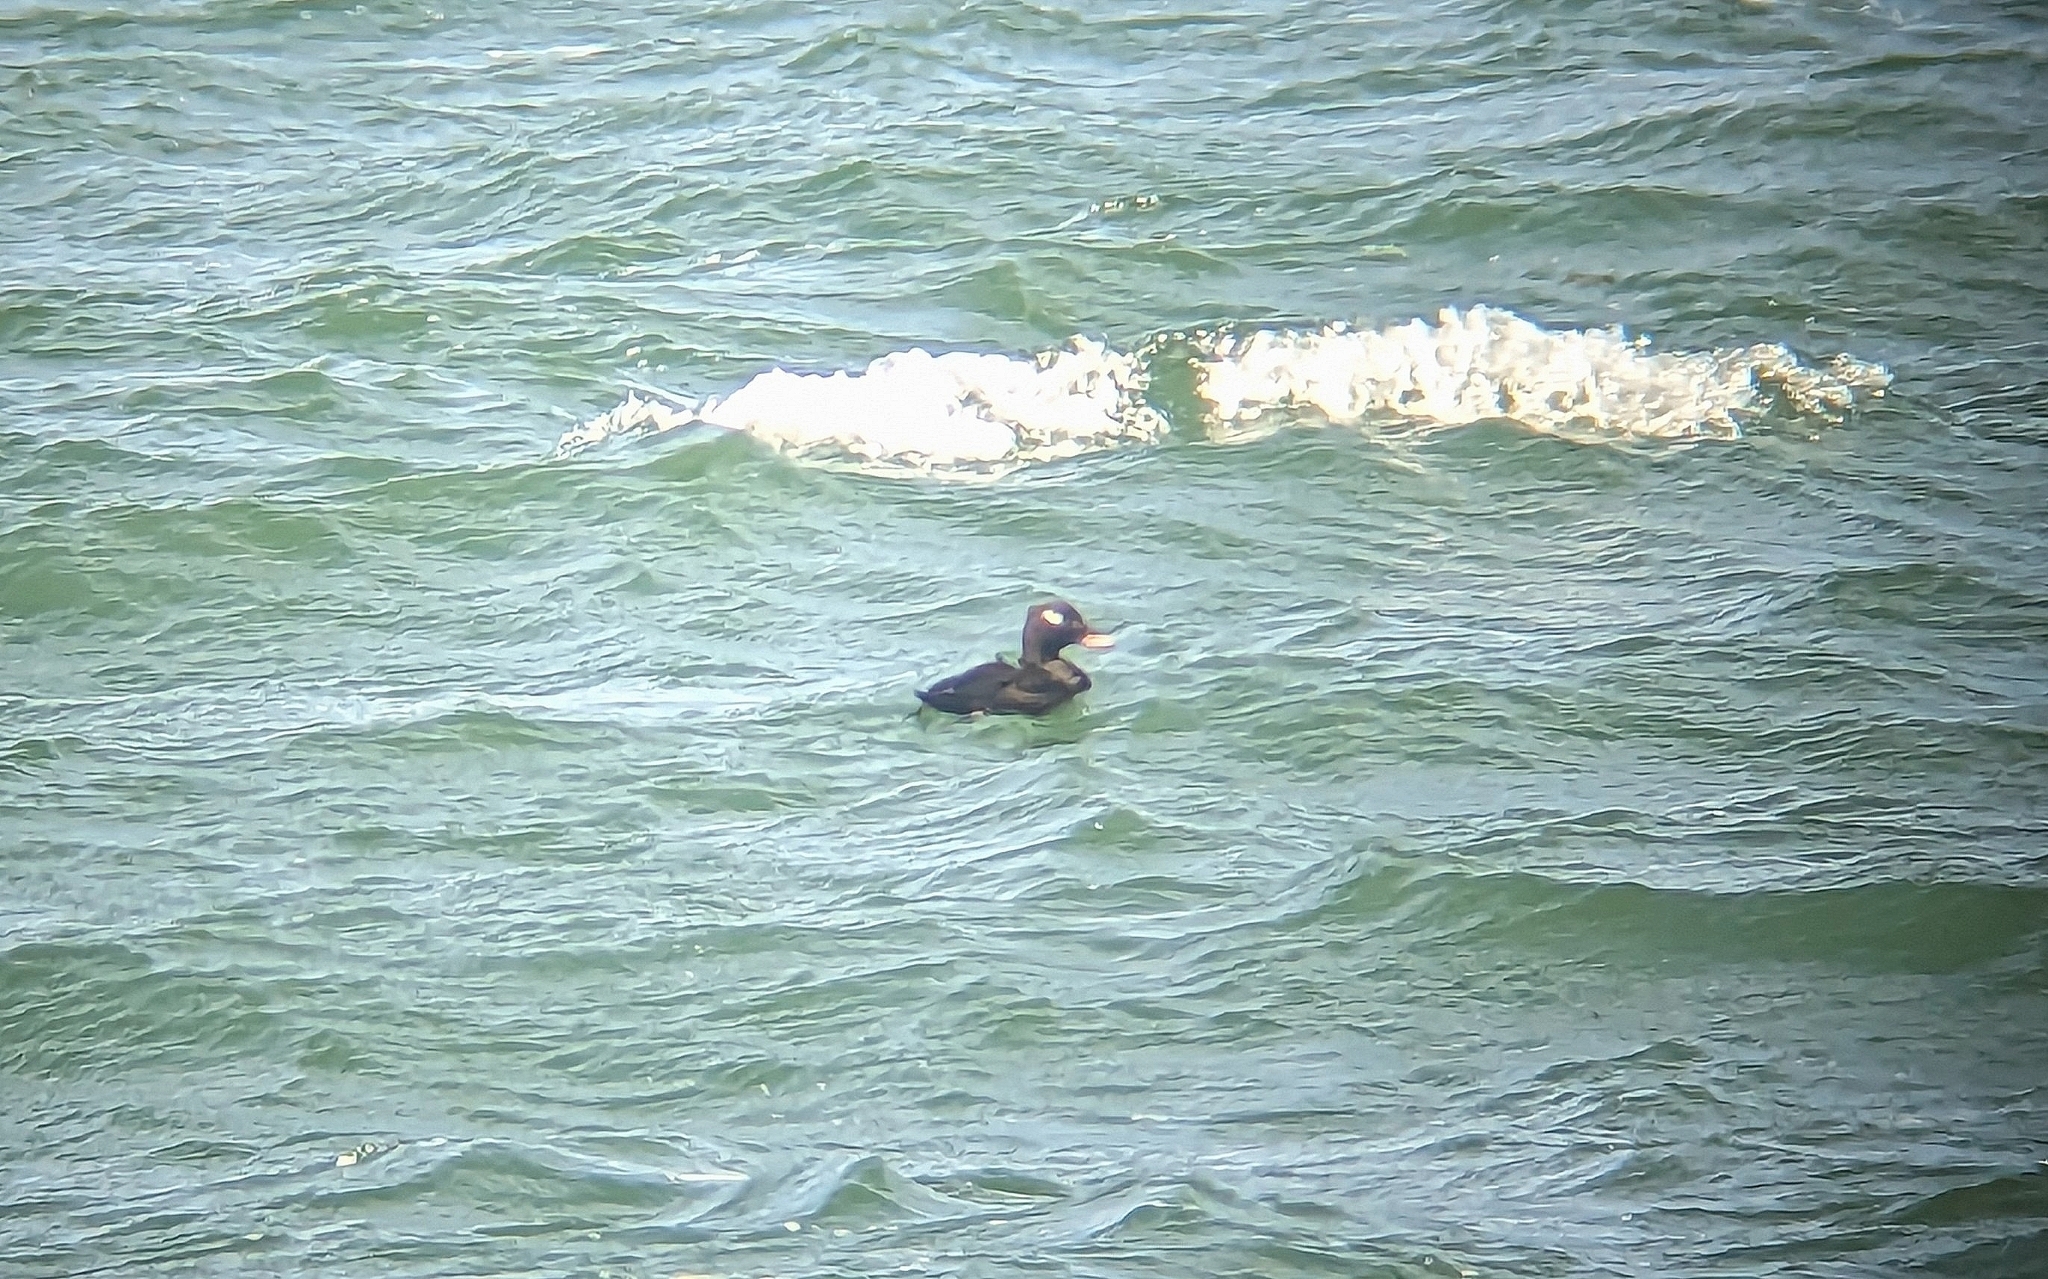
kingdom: Animalia
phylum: Chordata
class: Aves
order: Anseriformes
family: Anatidae
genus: Melanitta
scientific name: Melanitta deglandi
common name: White-winged scoter
